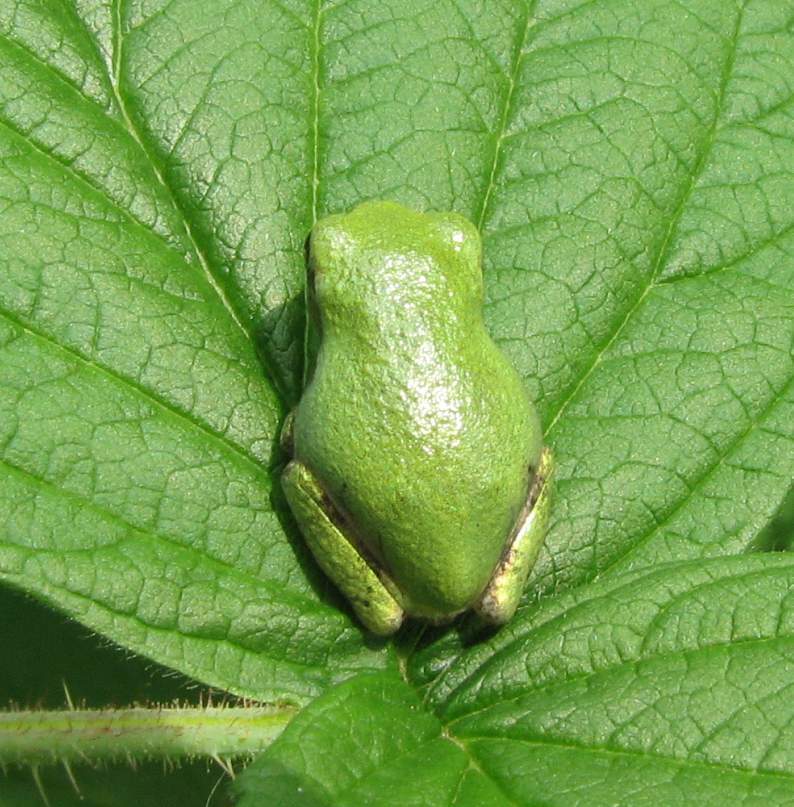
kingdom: Animalia
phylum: Chordata
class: Amphibia
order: Anura
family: Hylidae
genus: Dryophytes
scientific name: Dryophytes versicolor
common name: Gray treefrog
